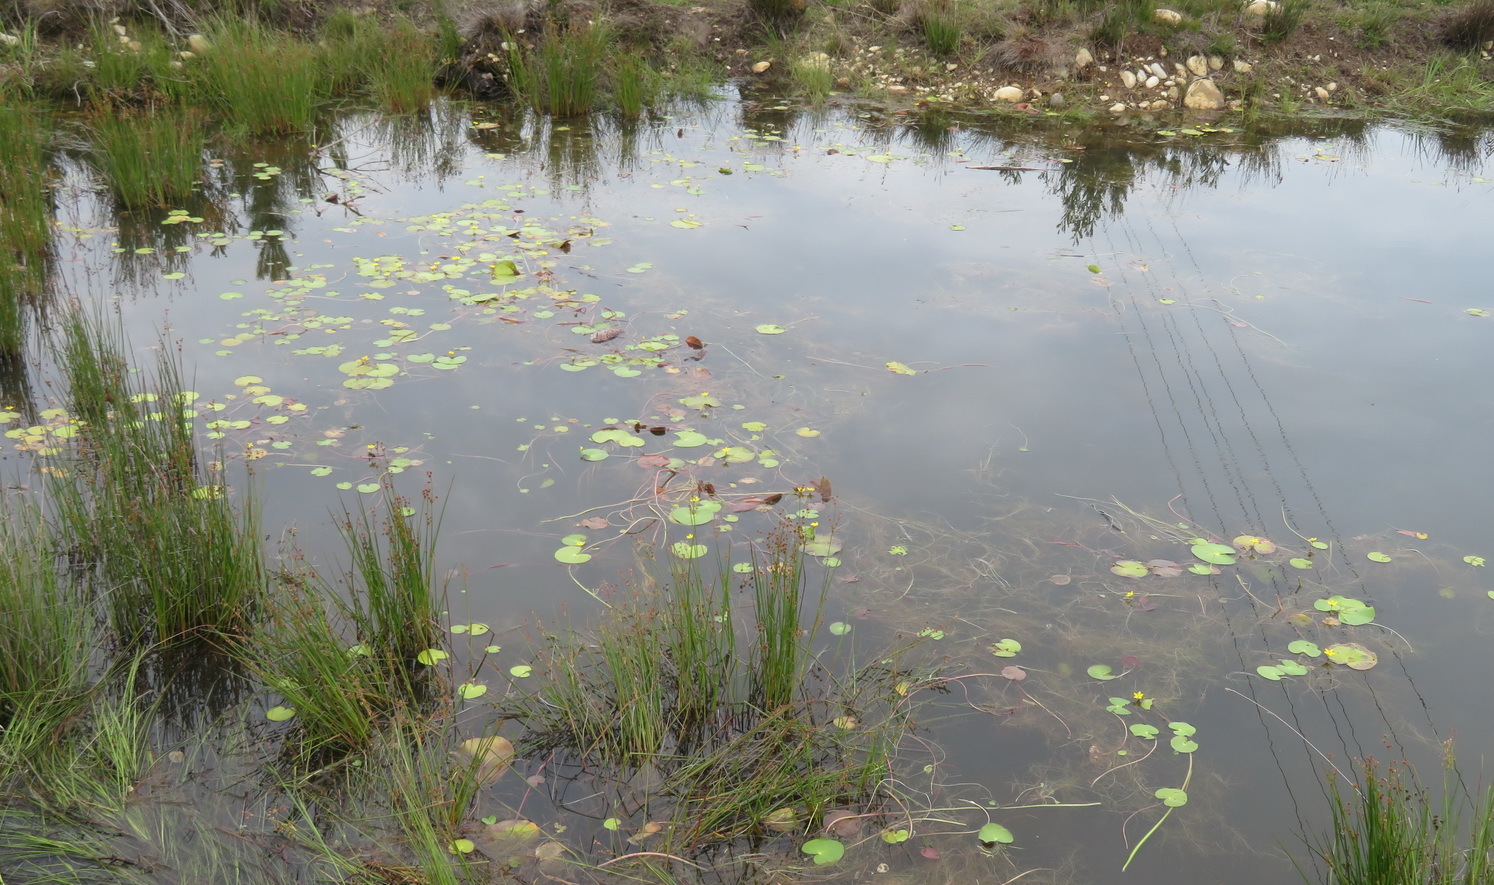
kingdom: Plantae
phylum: Tracheophyta
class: Magnoliopsida
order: Asterales
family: Menyanthaceae
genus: Nymphoides
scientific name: Nymphoides thunbergiana
